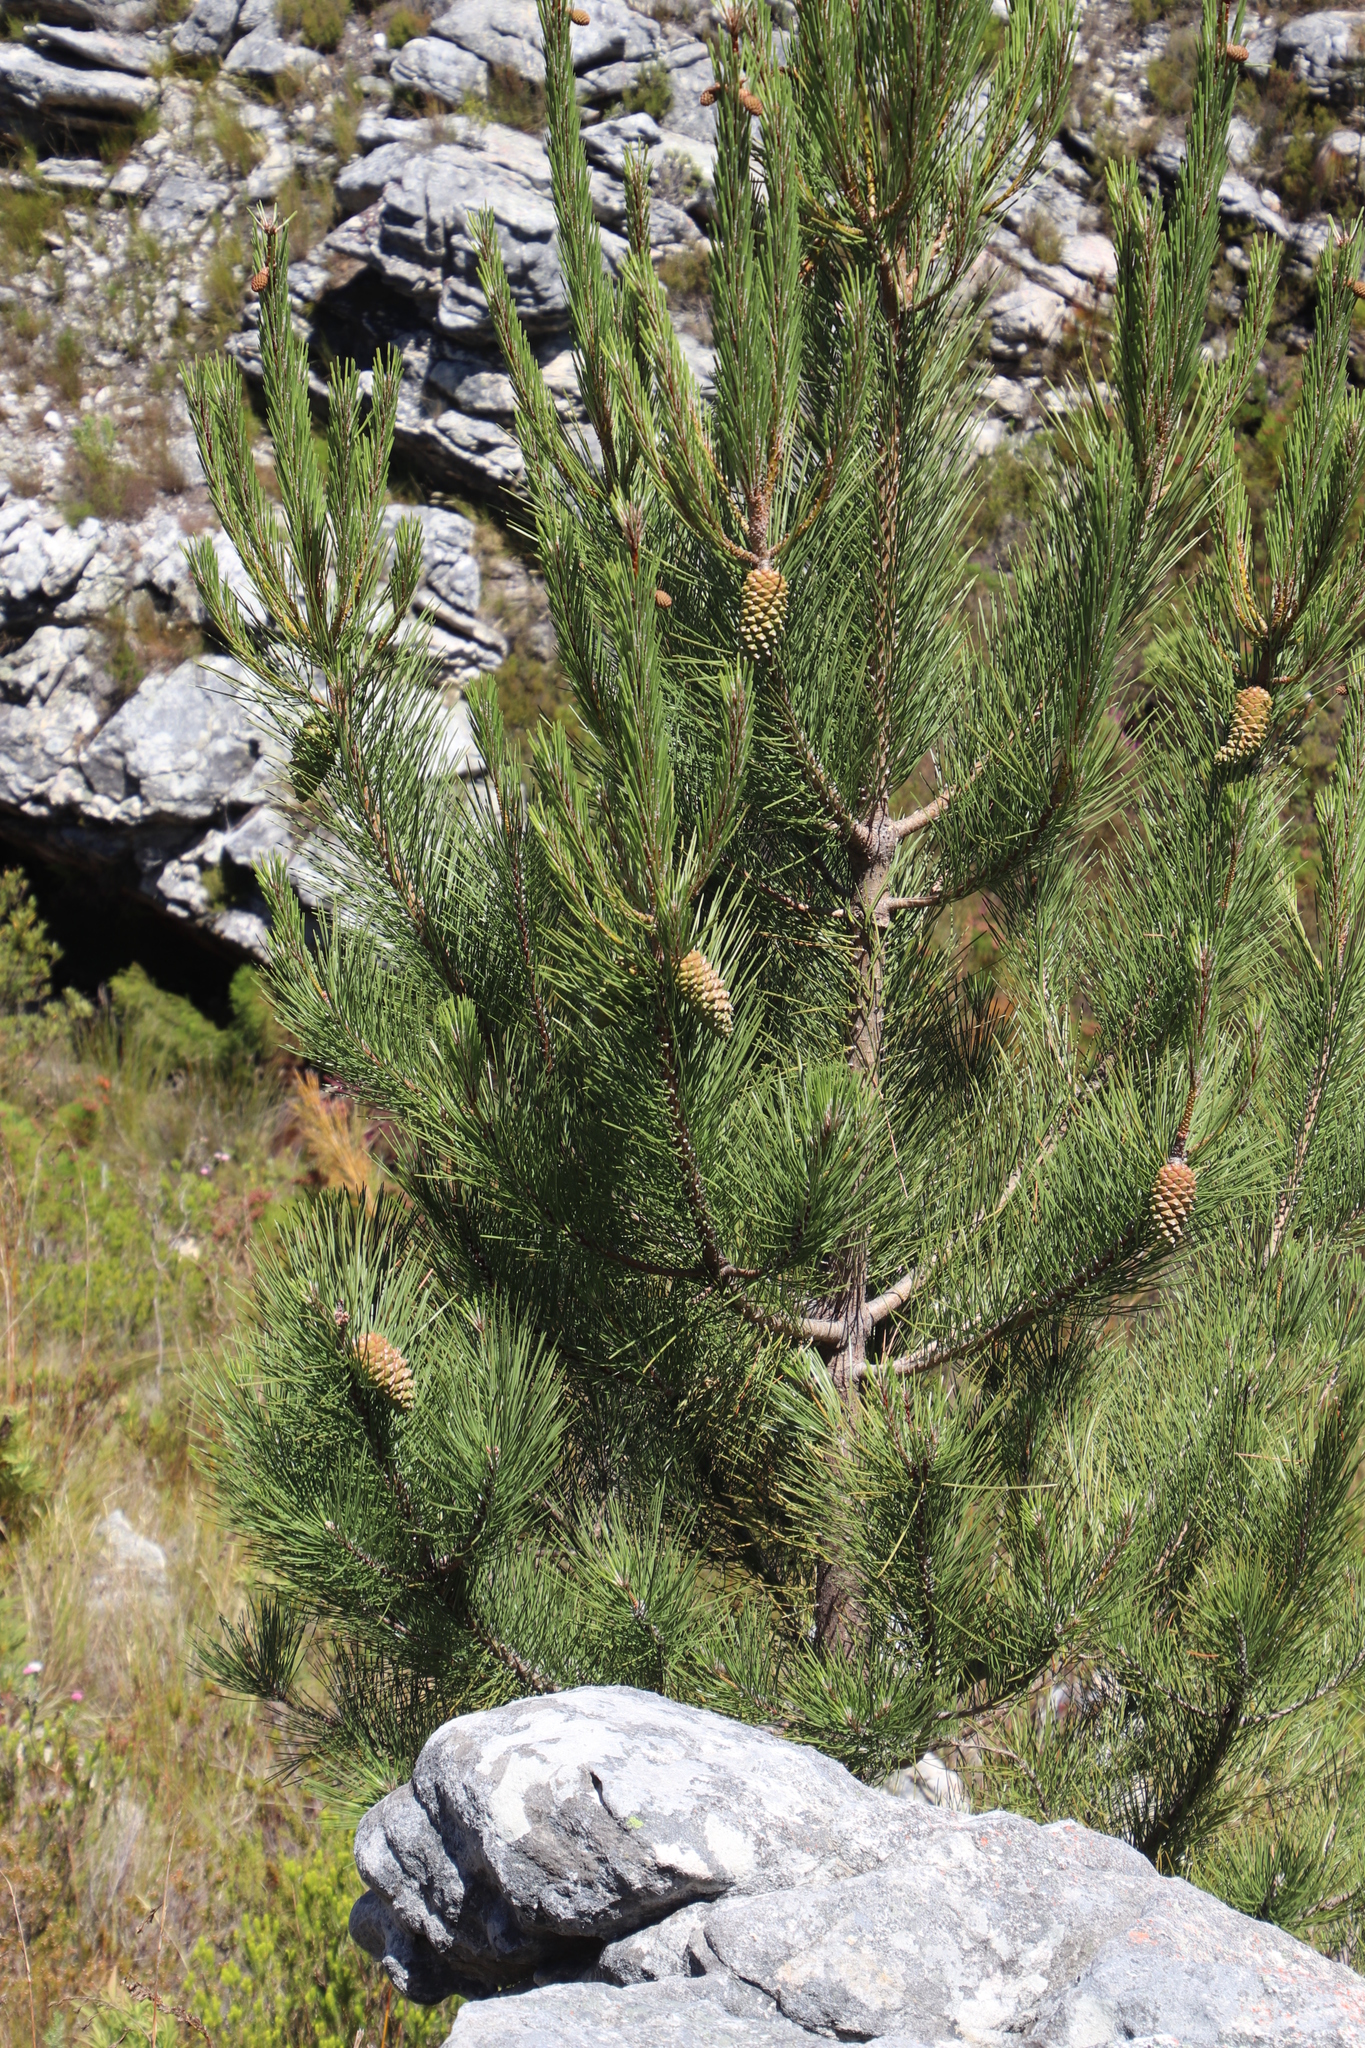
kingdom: Plantae
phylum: Tracheophyta
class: Pinopsida
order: Pinales
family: Pinaceae
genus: Pinus
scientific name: Pinus pinaster
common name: Maritime pine
